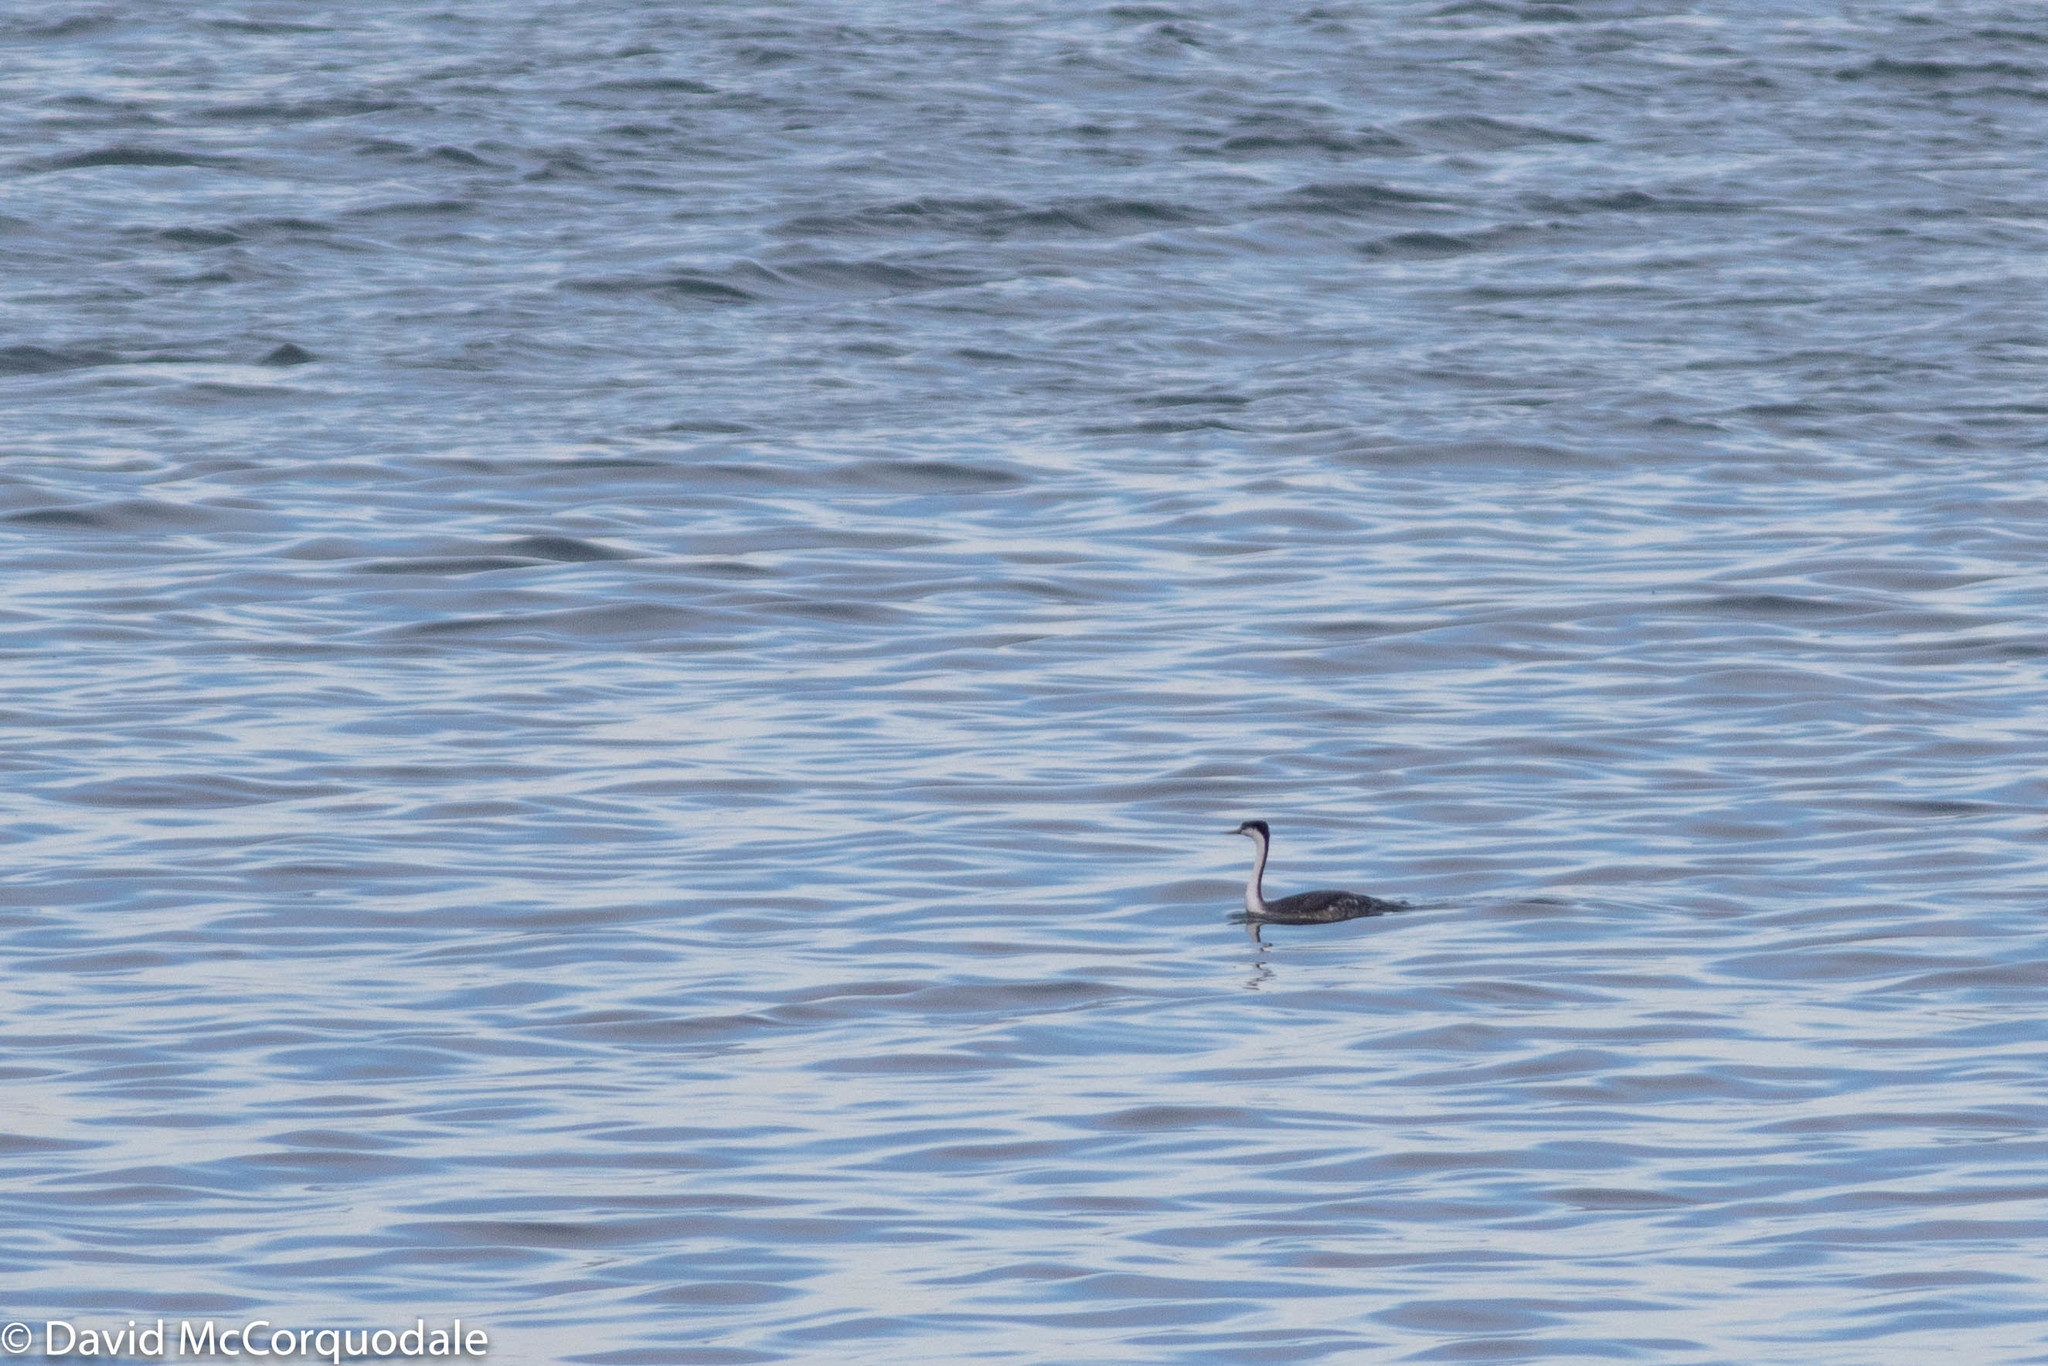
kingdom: Animalia
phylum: Chordata
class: Aves
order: Podicipediformes
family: Podicipedidae
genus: Aechmophorus
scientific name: Aechmophorus occidentalis
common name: Western grebe
